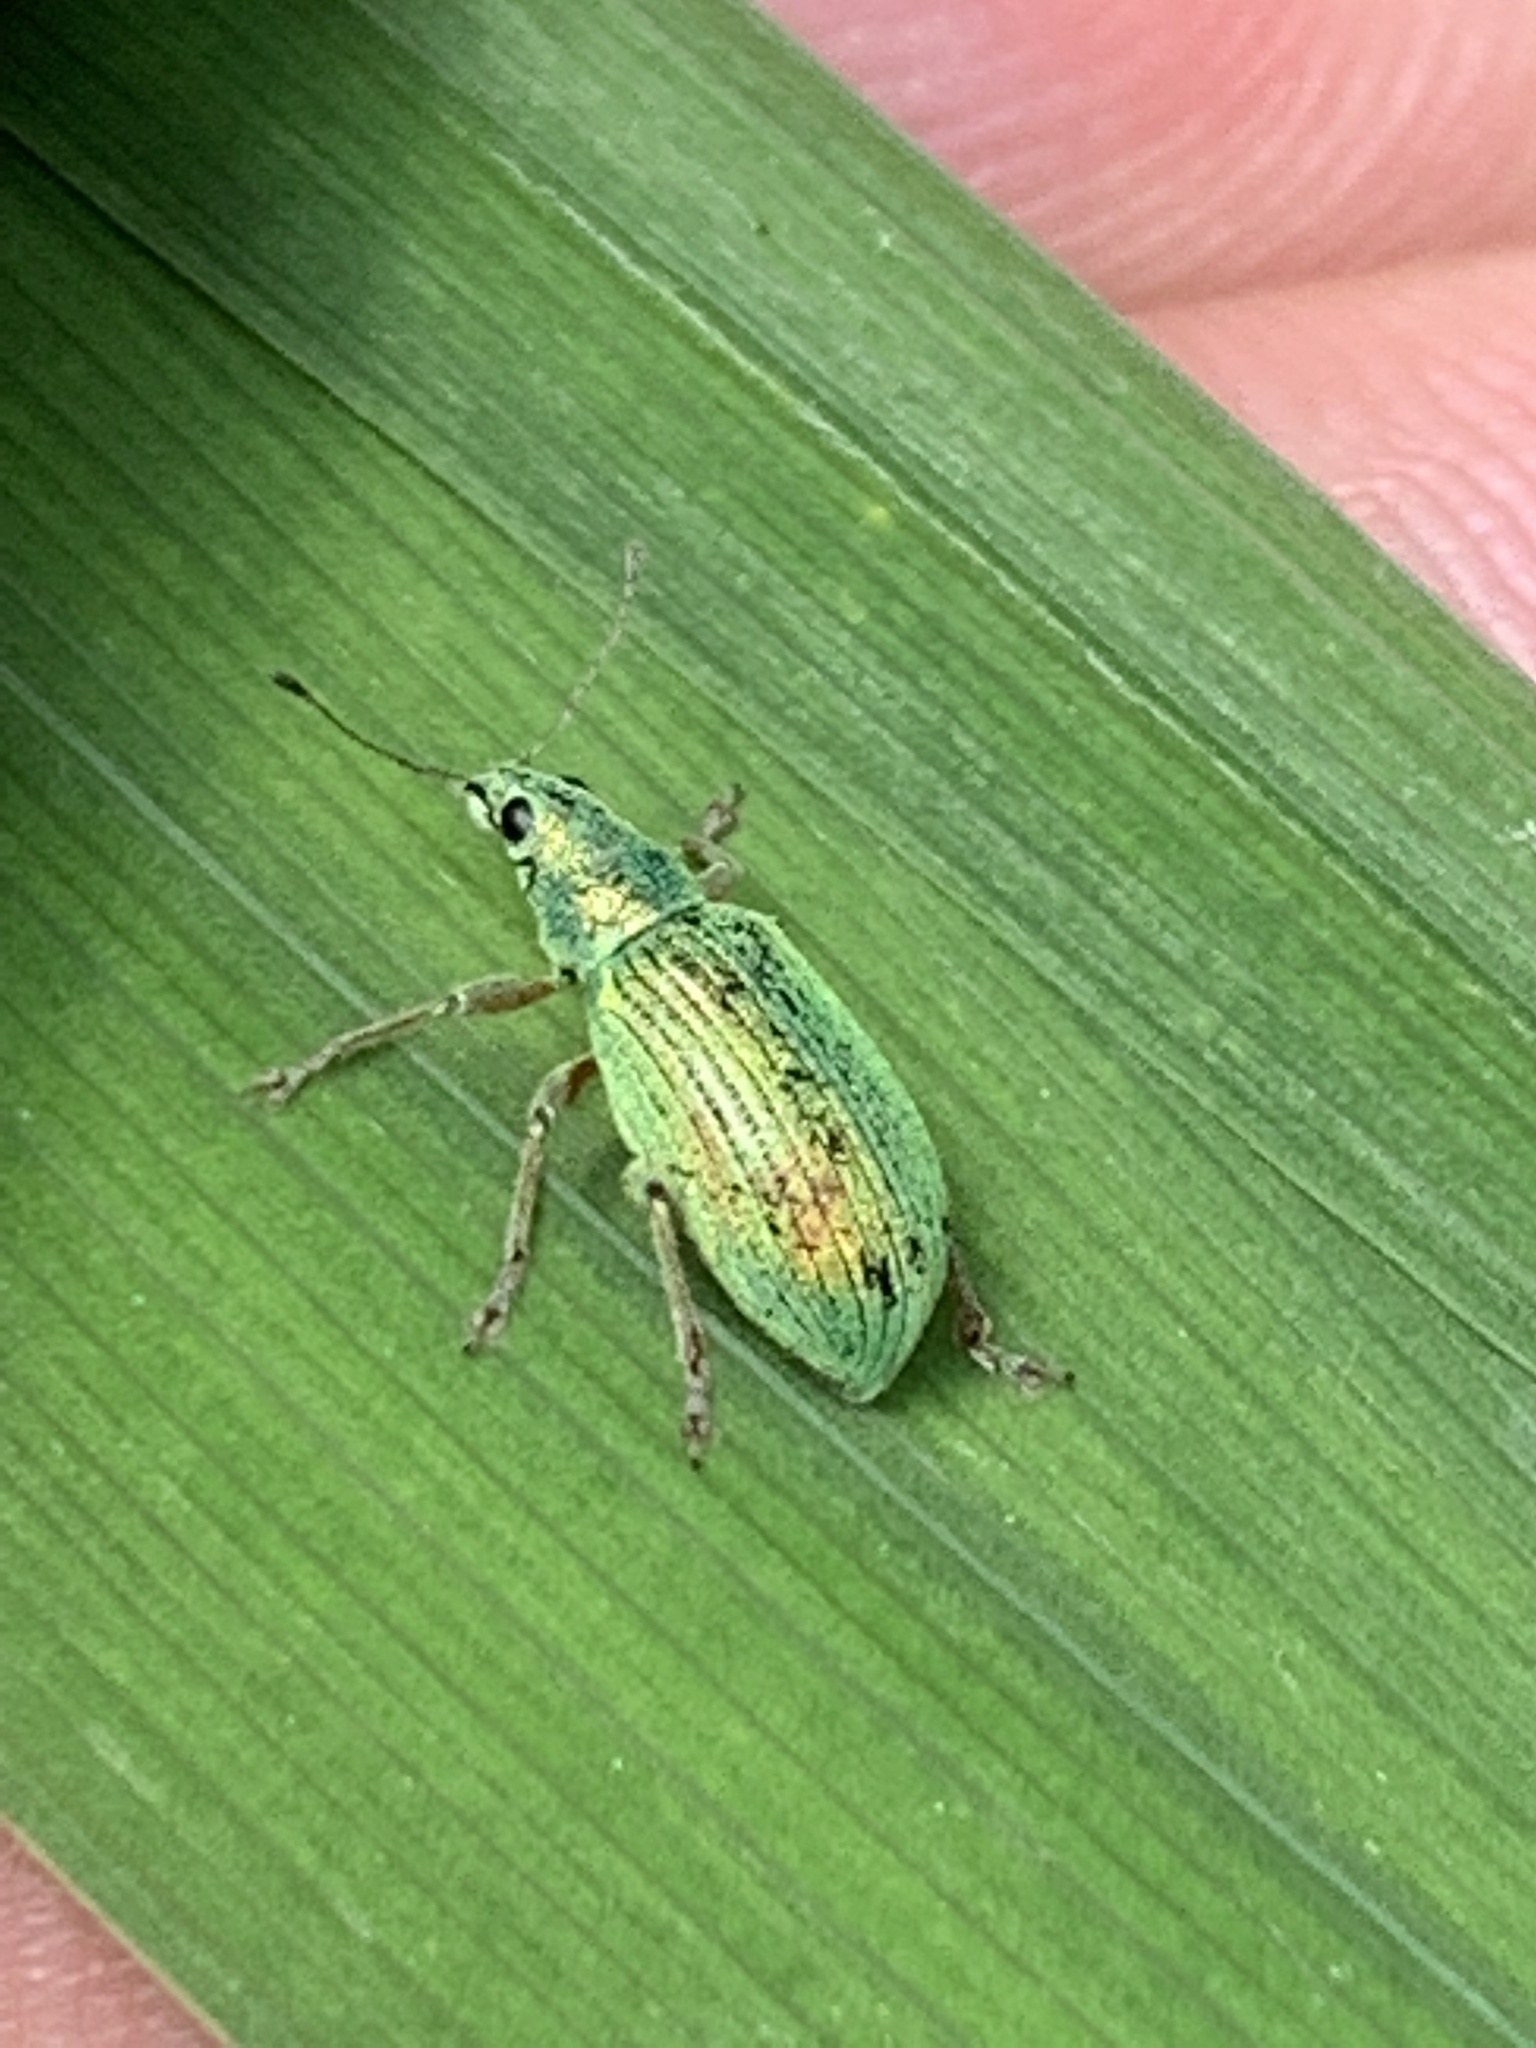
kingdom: Animalia
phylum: Arthropoda
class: Insecta
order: Coleoptera
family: Curculionidae
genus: Polydrusus
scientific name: Polydrusus formosus
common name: Weevil
